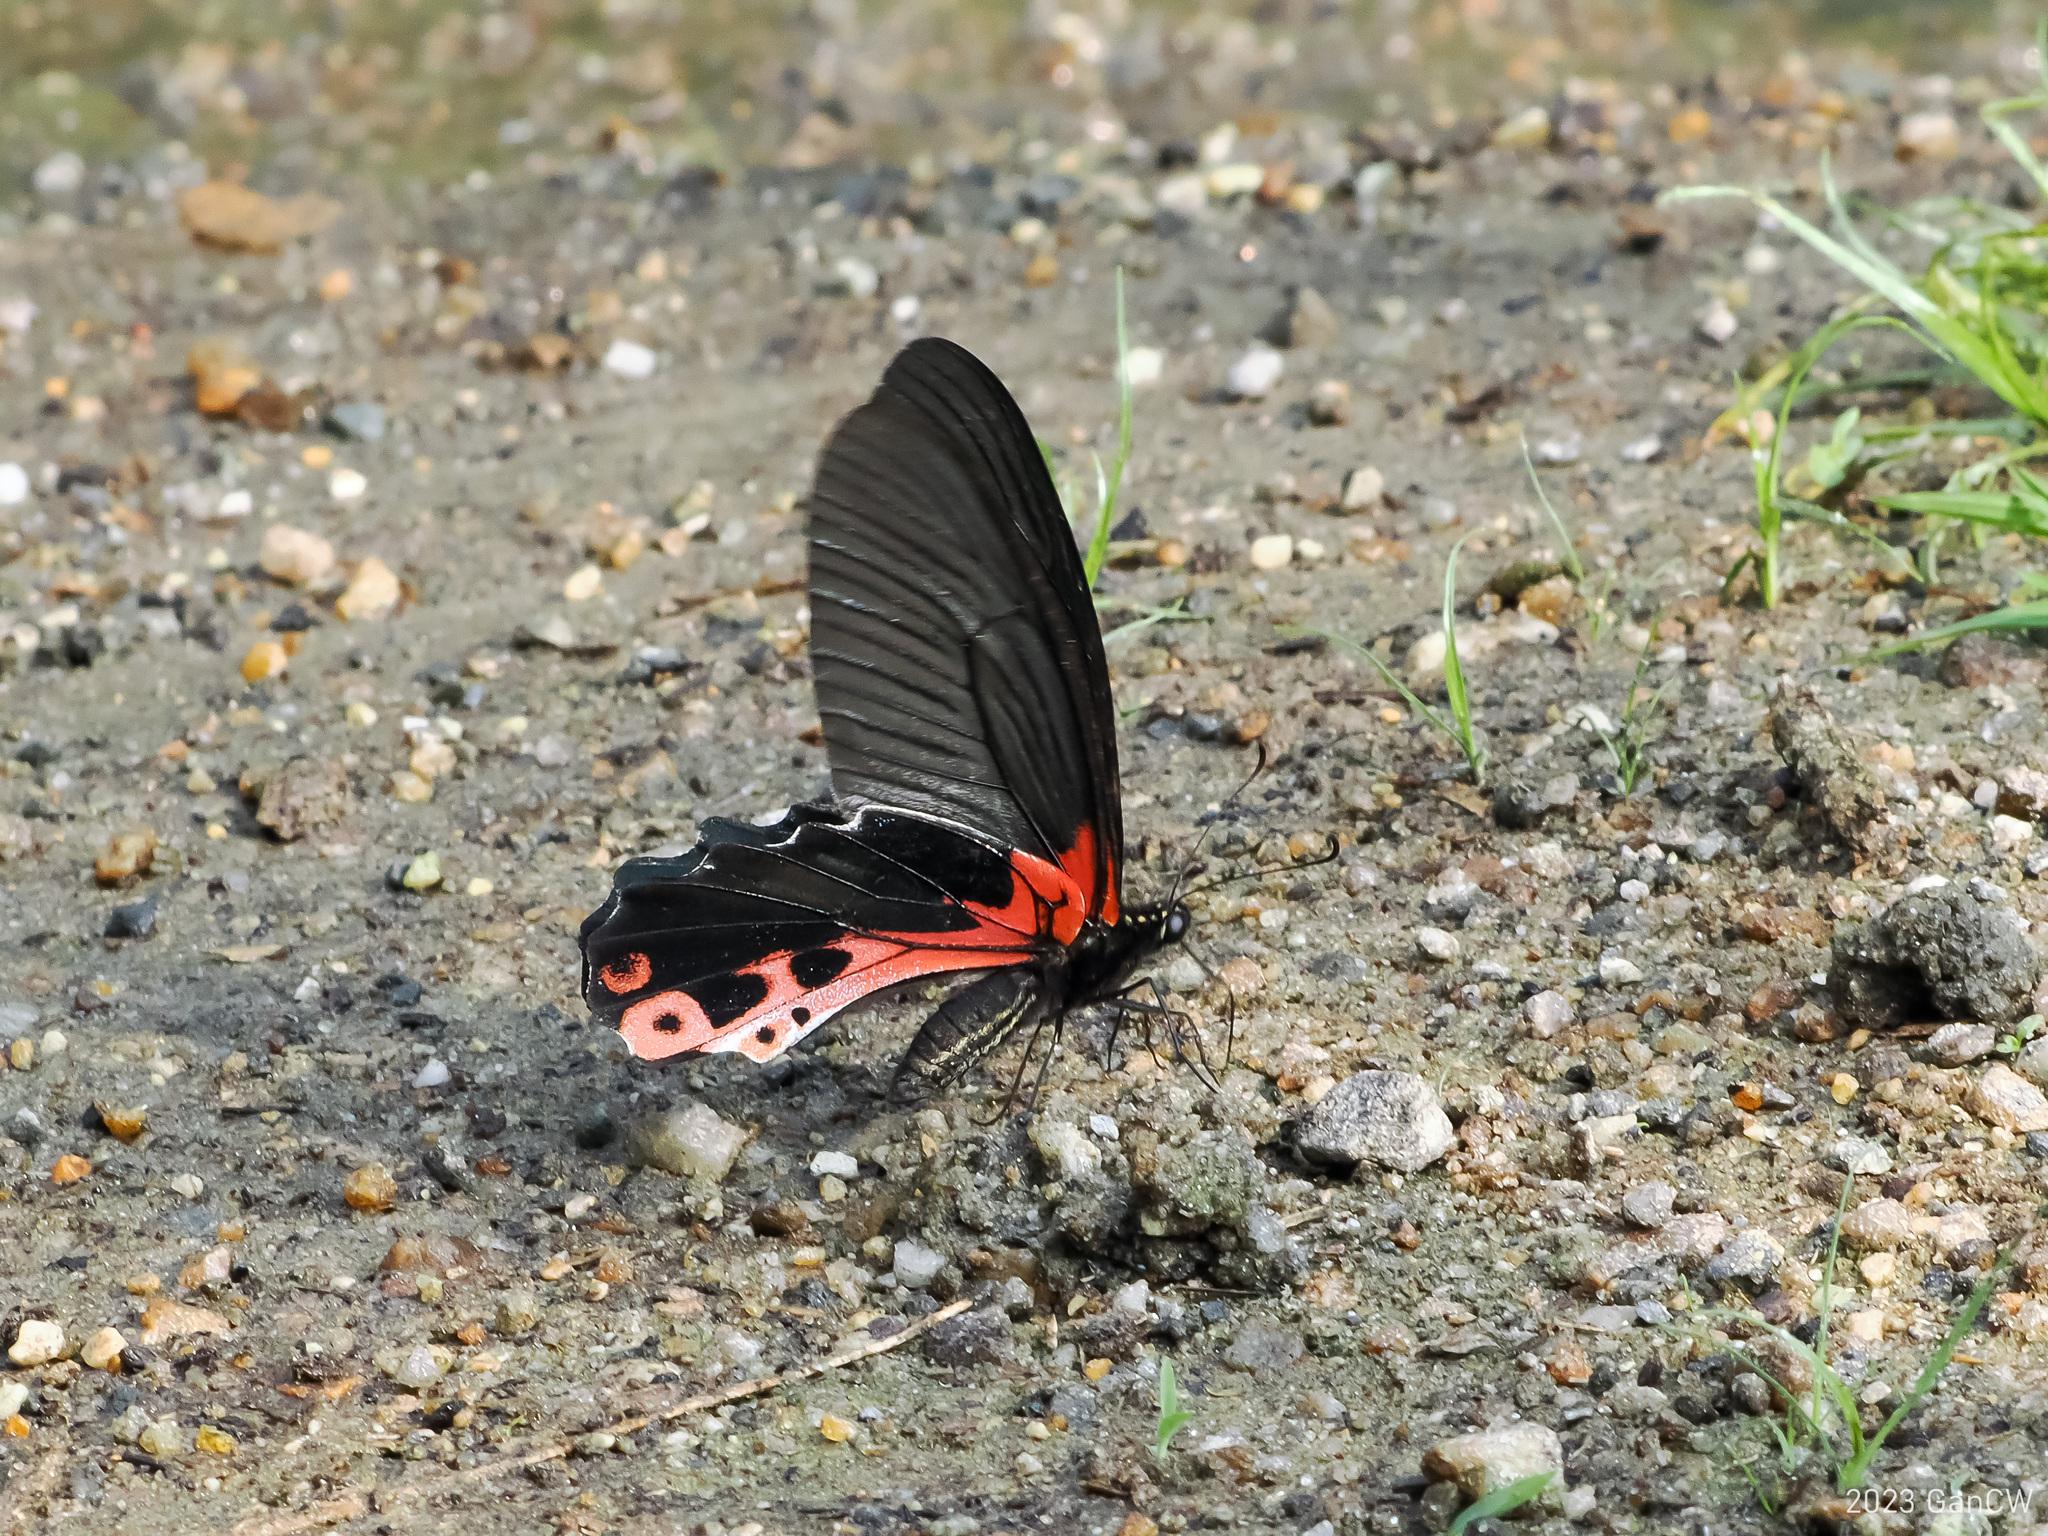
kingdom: Animalia
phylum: Arthropoda
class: Insecta
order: Lepidoptera
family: Papilionidae
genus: Papilio
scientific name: Papilio alcmenor
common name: Redbreast
